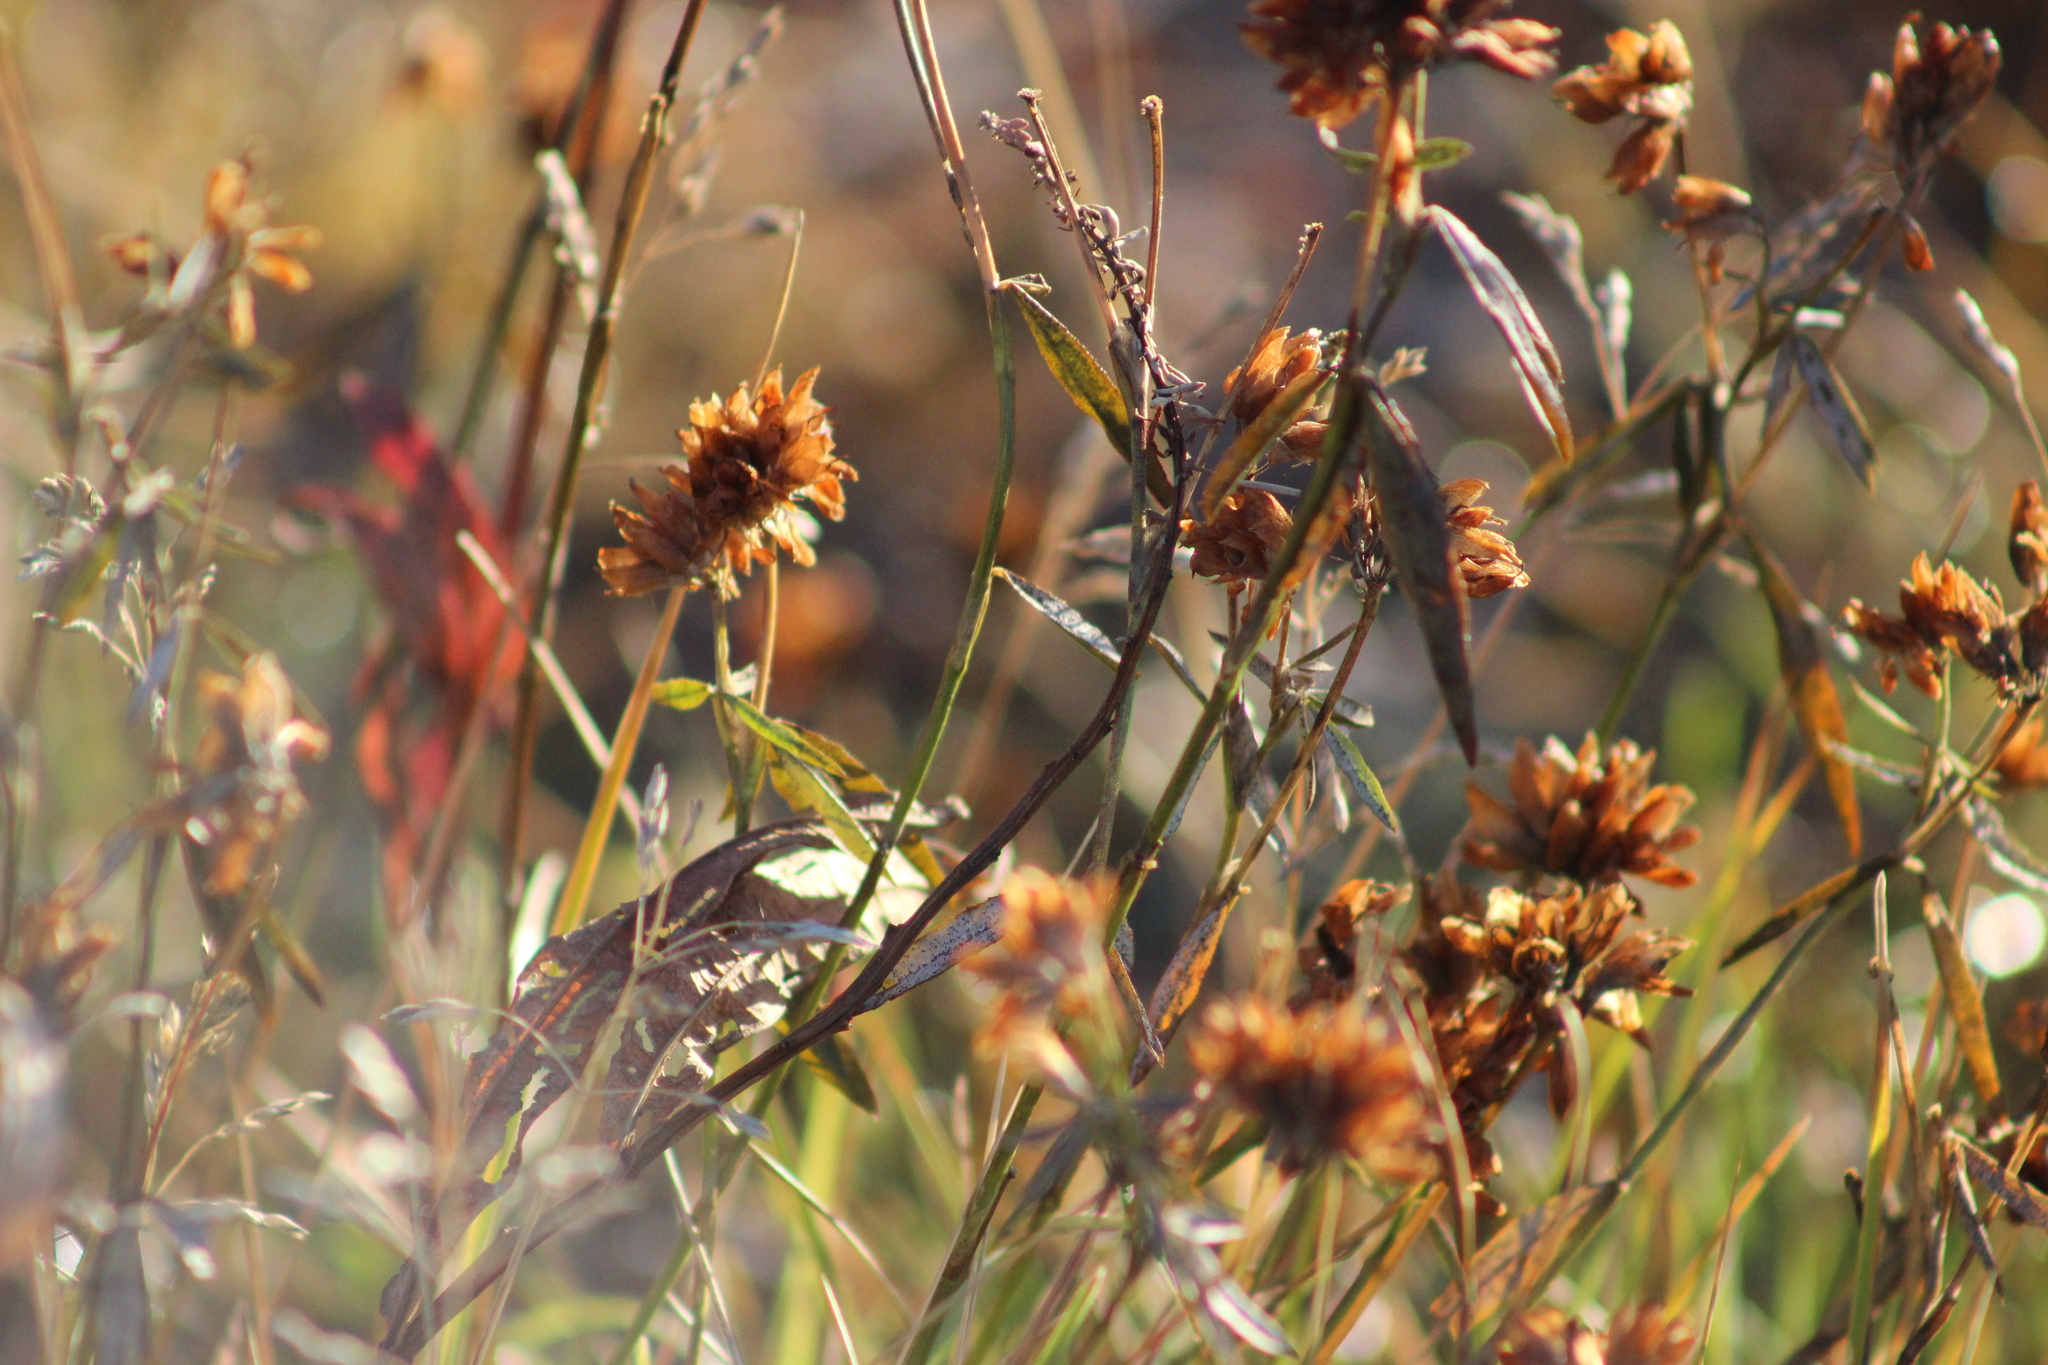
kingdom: Plantae
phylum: Tracheophyta
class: Magnoliopsida
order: Fabales
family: Fabaceae
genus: Trifolium
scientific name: Trifolium lupinaster
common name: Lupine clover
